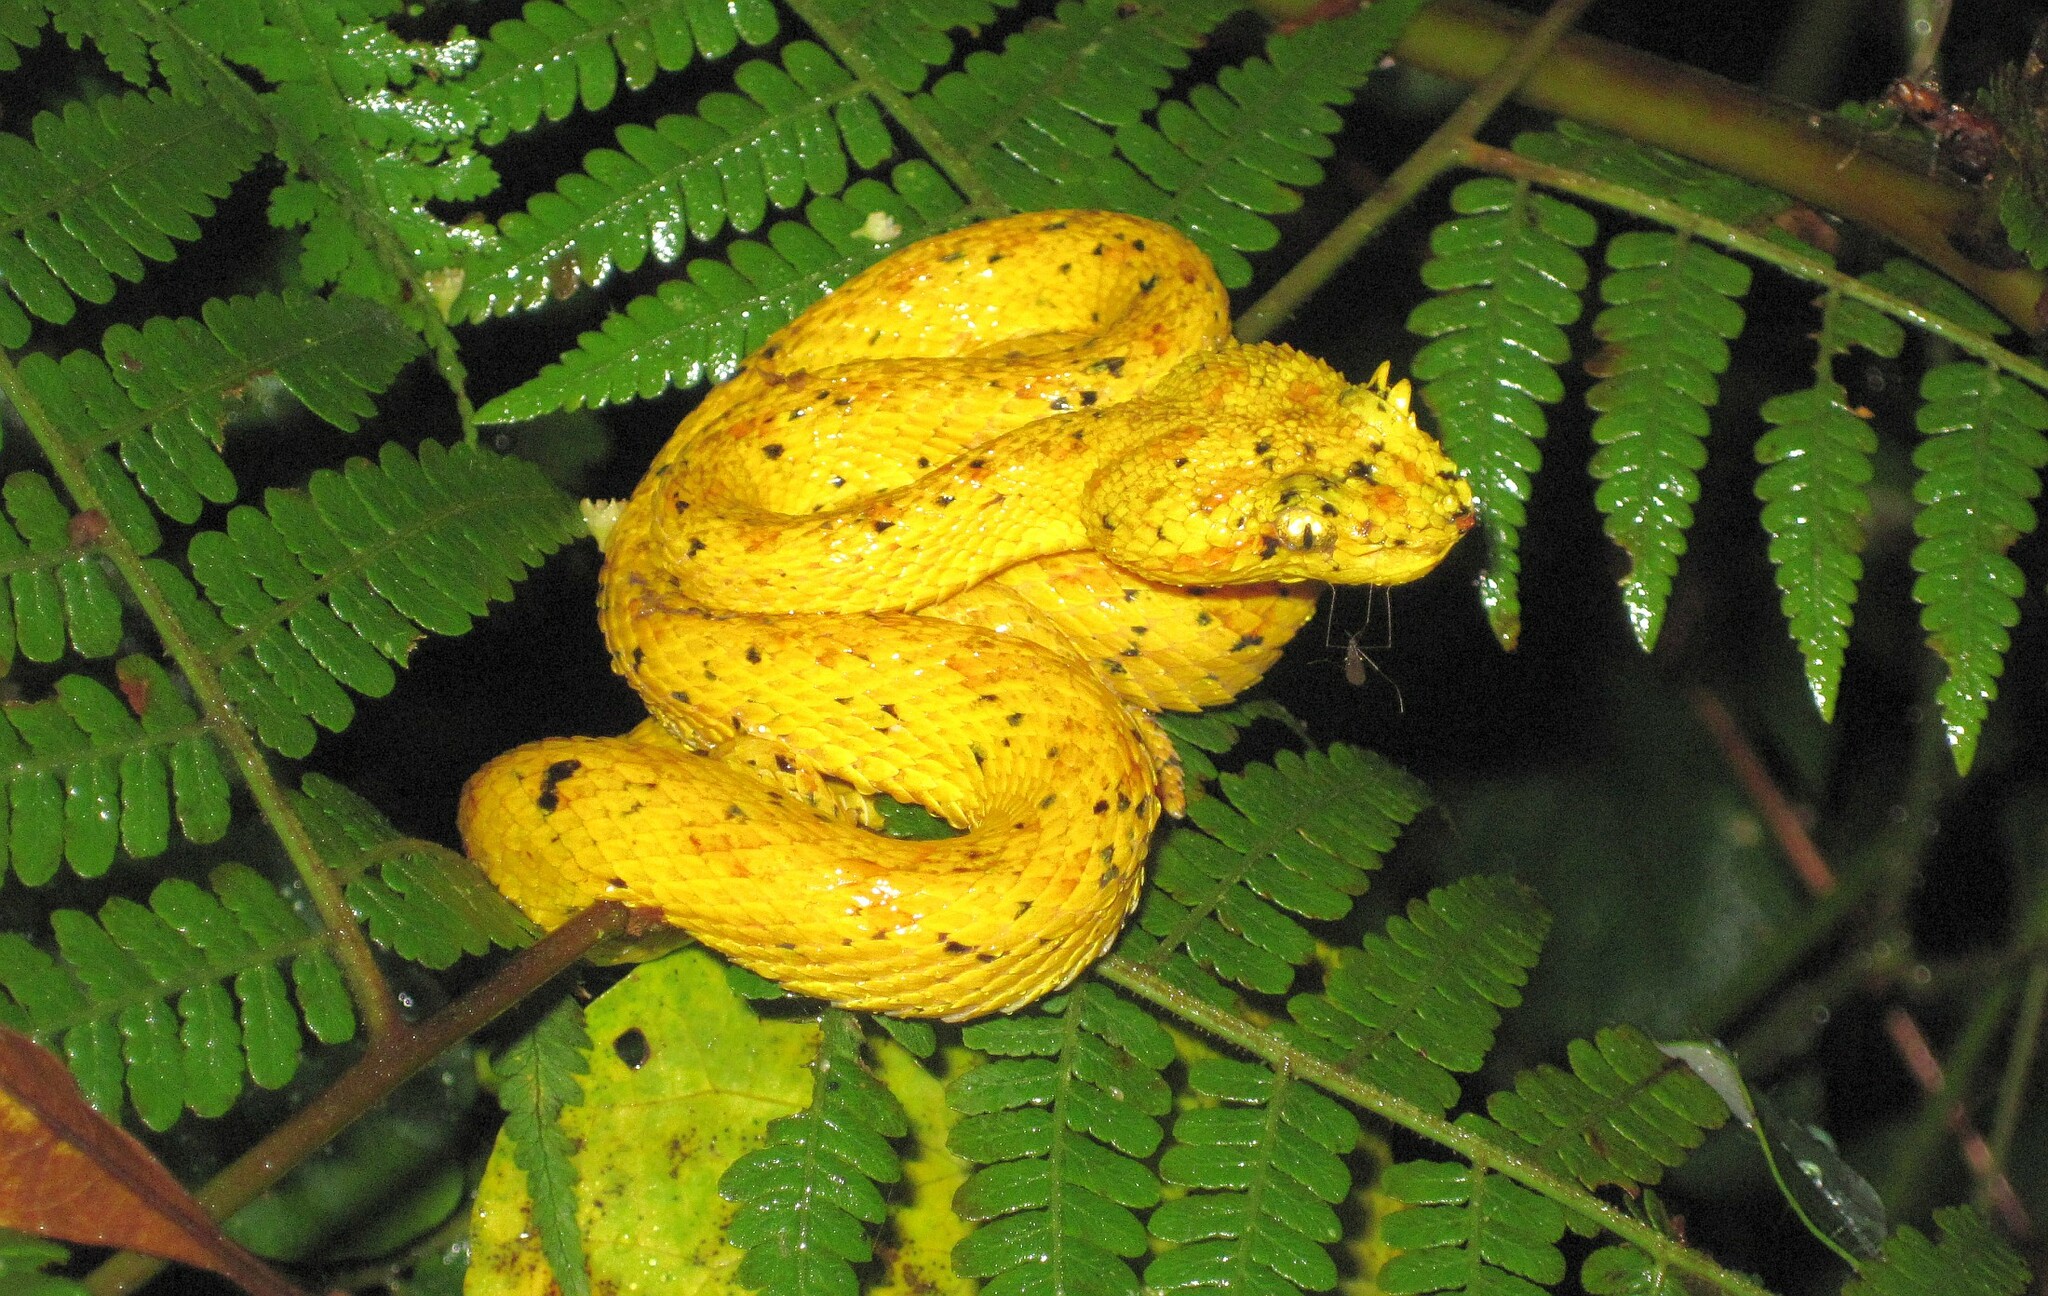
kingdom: Animalia
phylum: Chordata
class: Squamata
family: Viperidae
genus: Bothriechis
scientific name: Bothriechis schlegelii
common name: Eyelash viper
